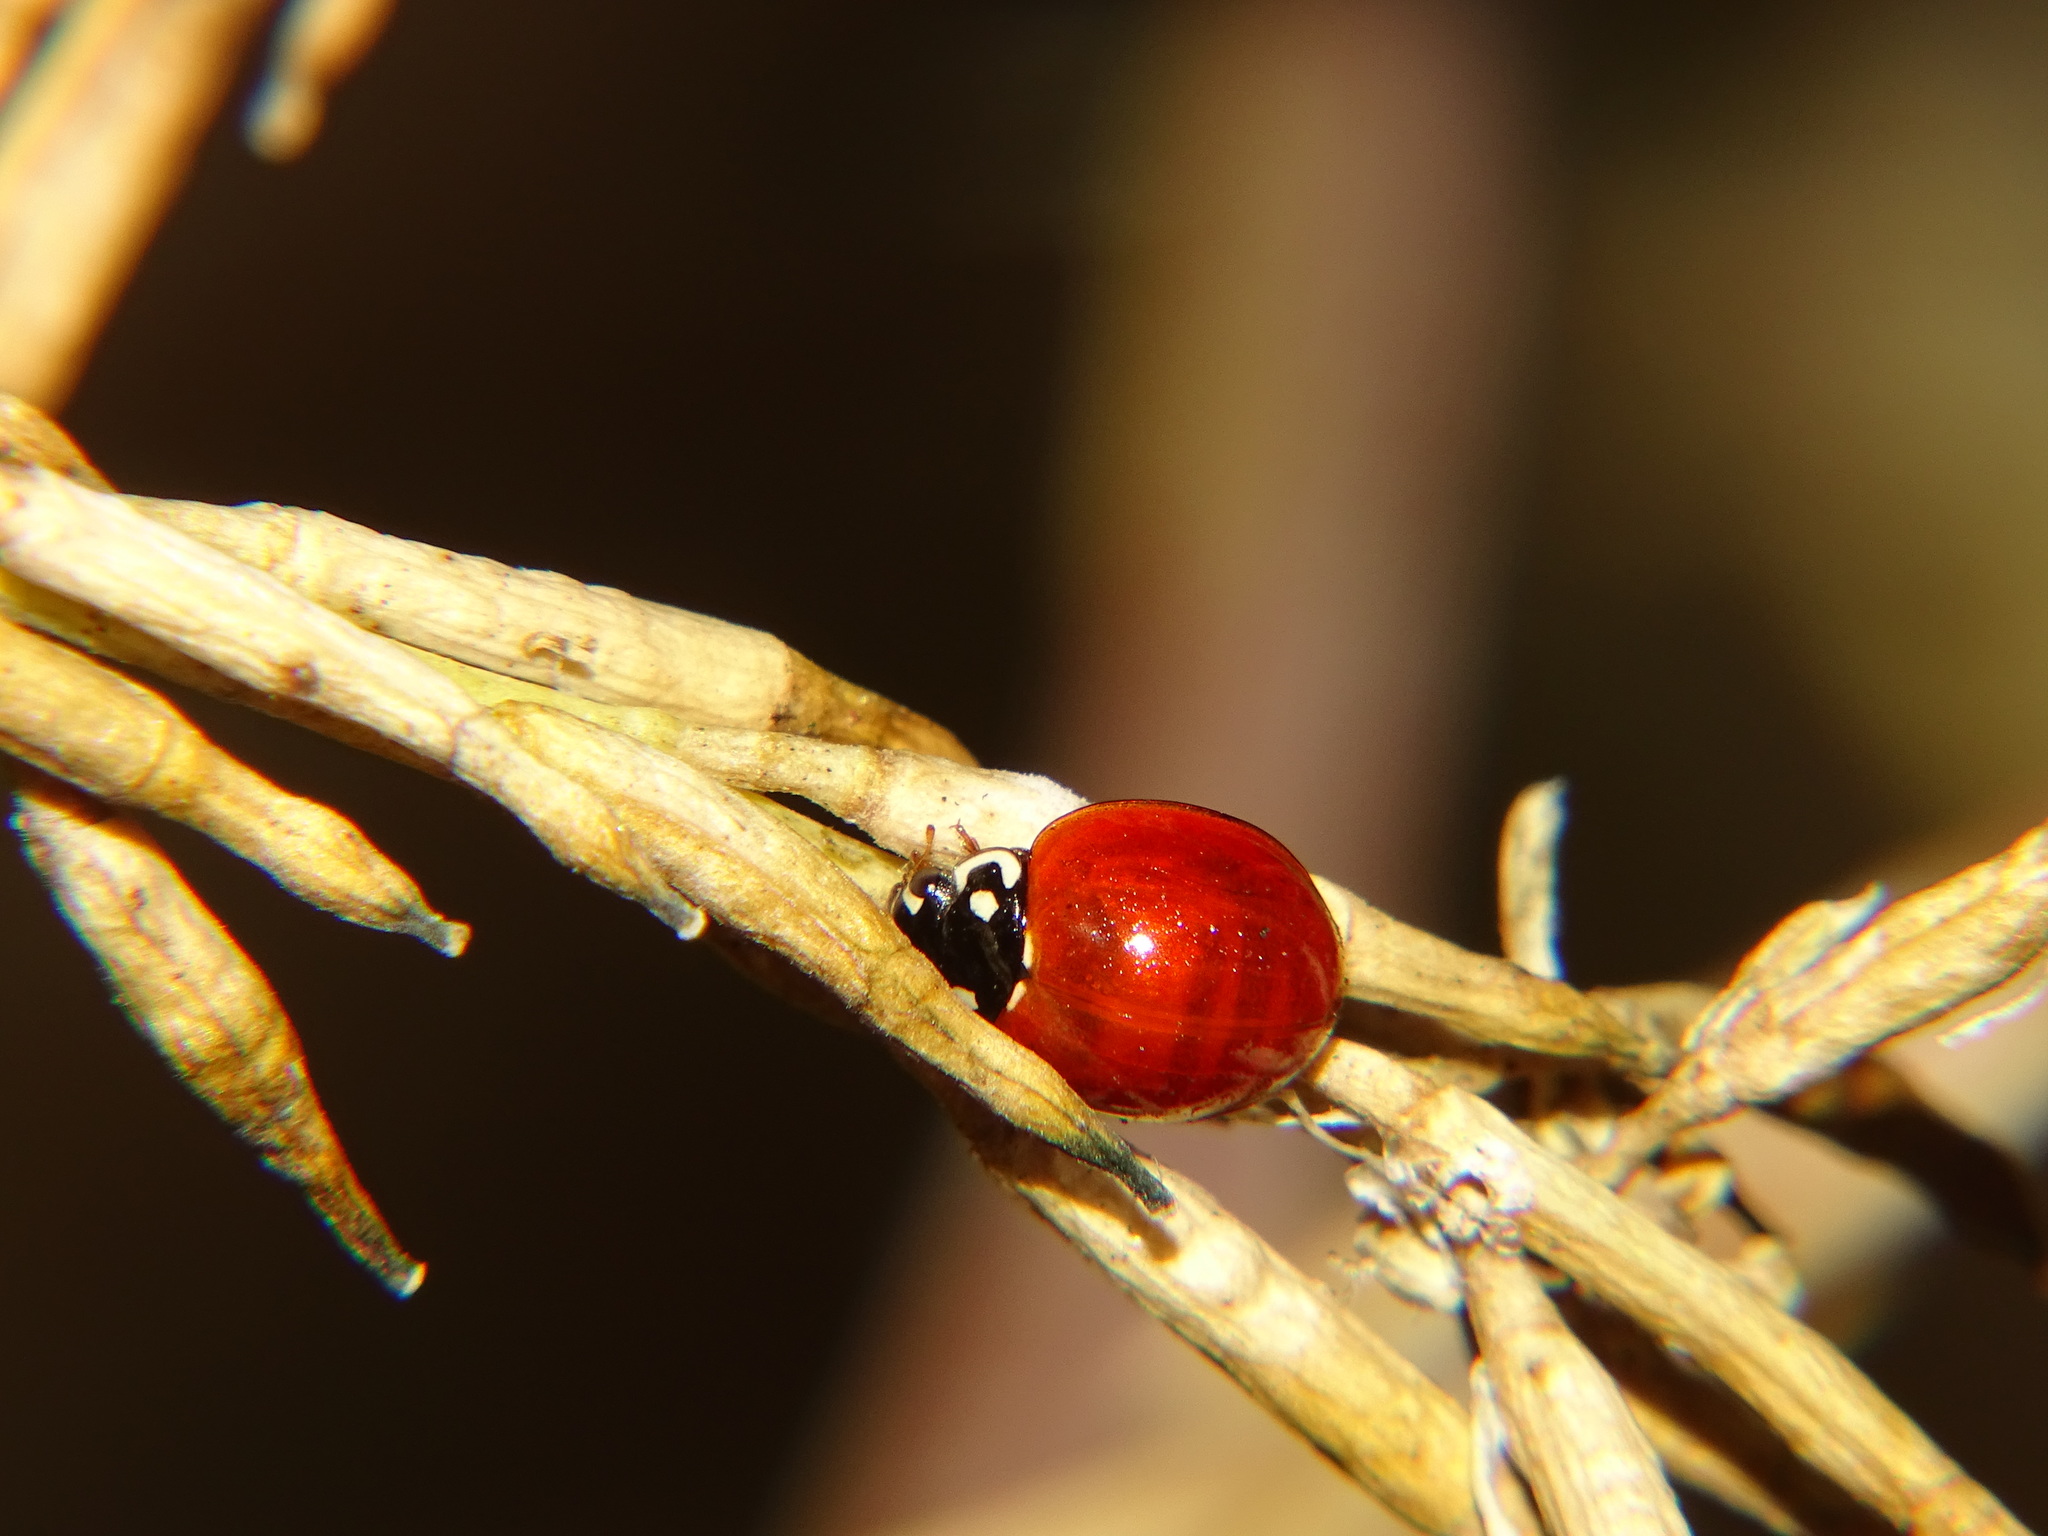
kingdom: Animalia
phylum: Arthropoda
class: Insecta
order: Coleoptera
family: Coccinellidae
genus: Cycloneda
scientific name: Cycloneda sanguinea
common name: Ladybird beetle
